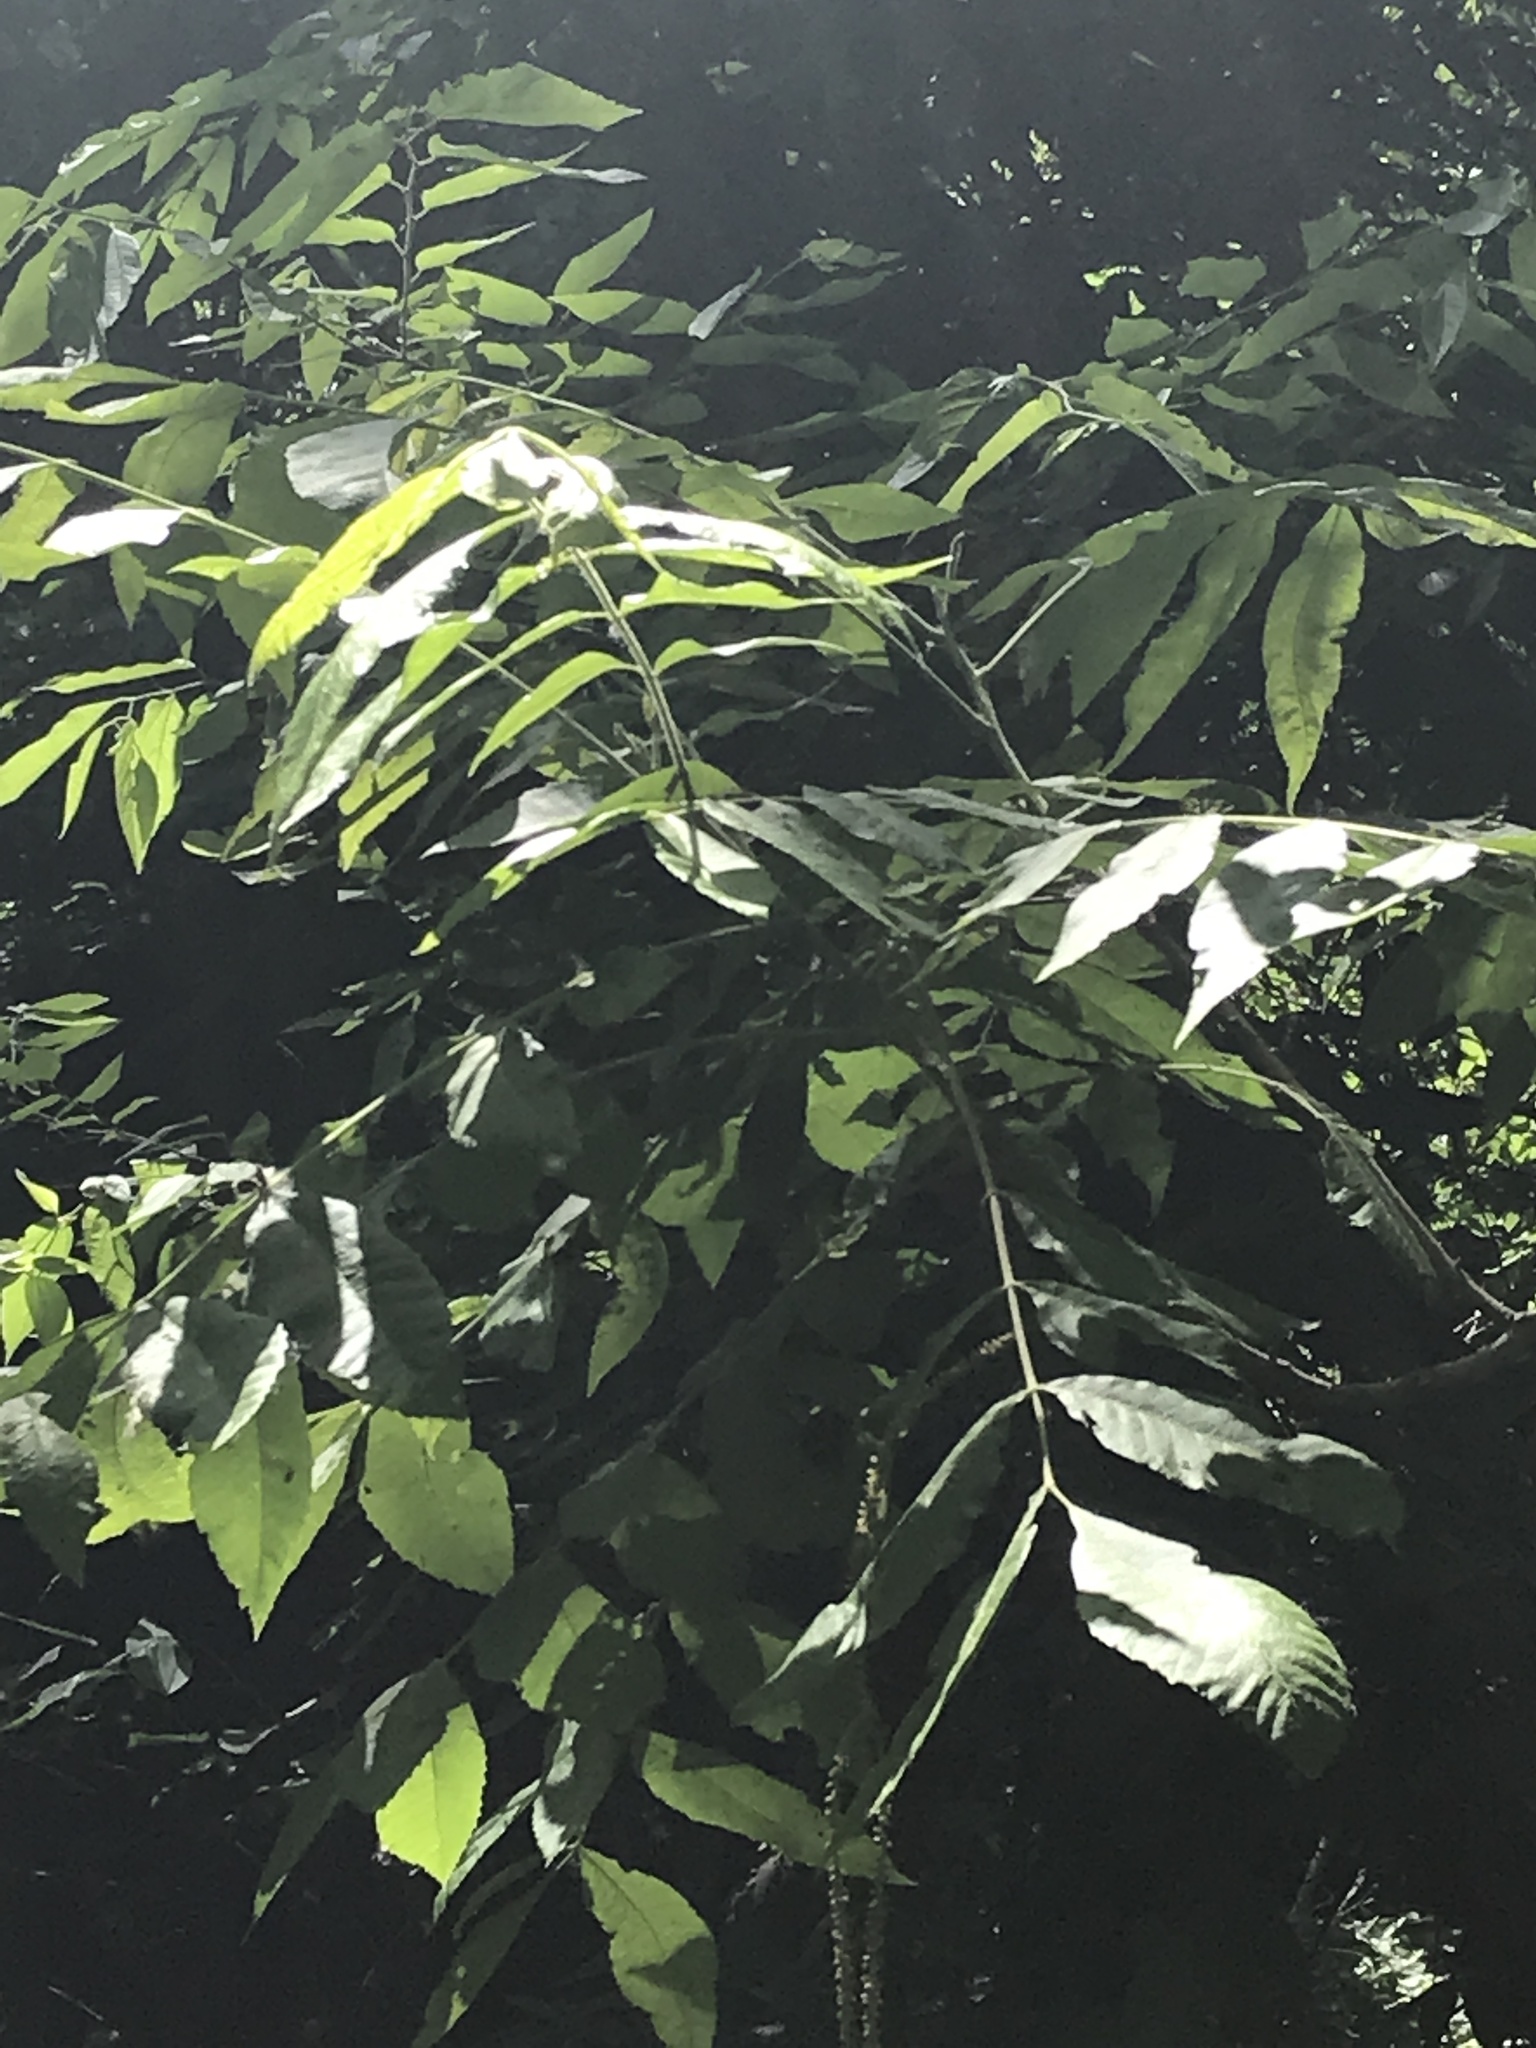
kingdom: Plantae
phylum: Tracheophyta
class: Magnoliopsida
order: Fagales
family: Juglandaceae
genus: Carya
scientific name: Carya illinoinensis
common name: Pecan
